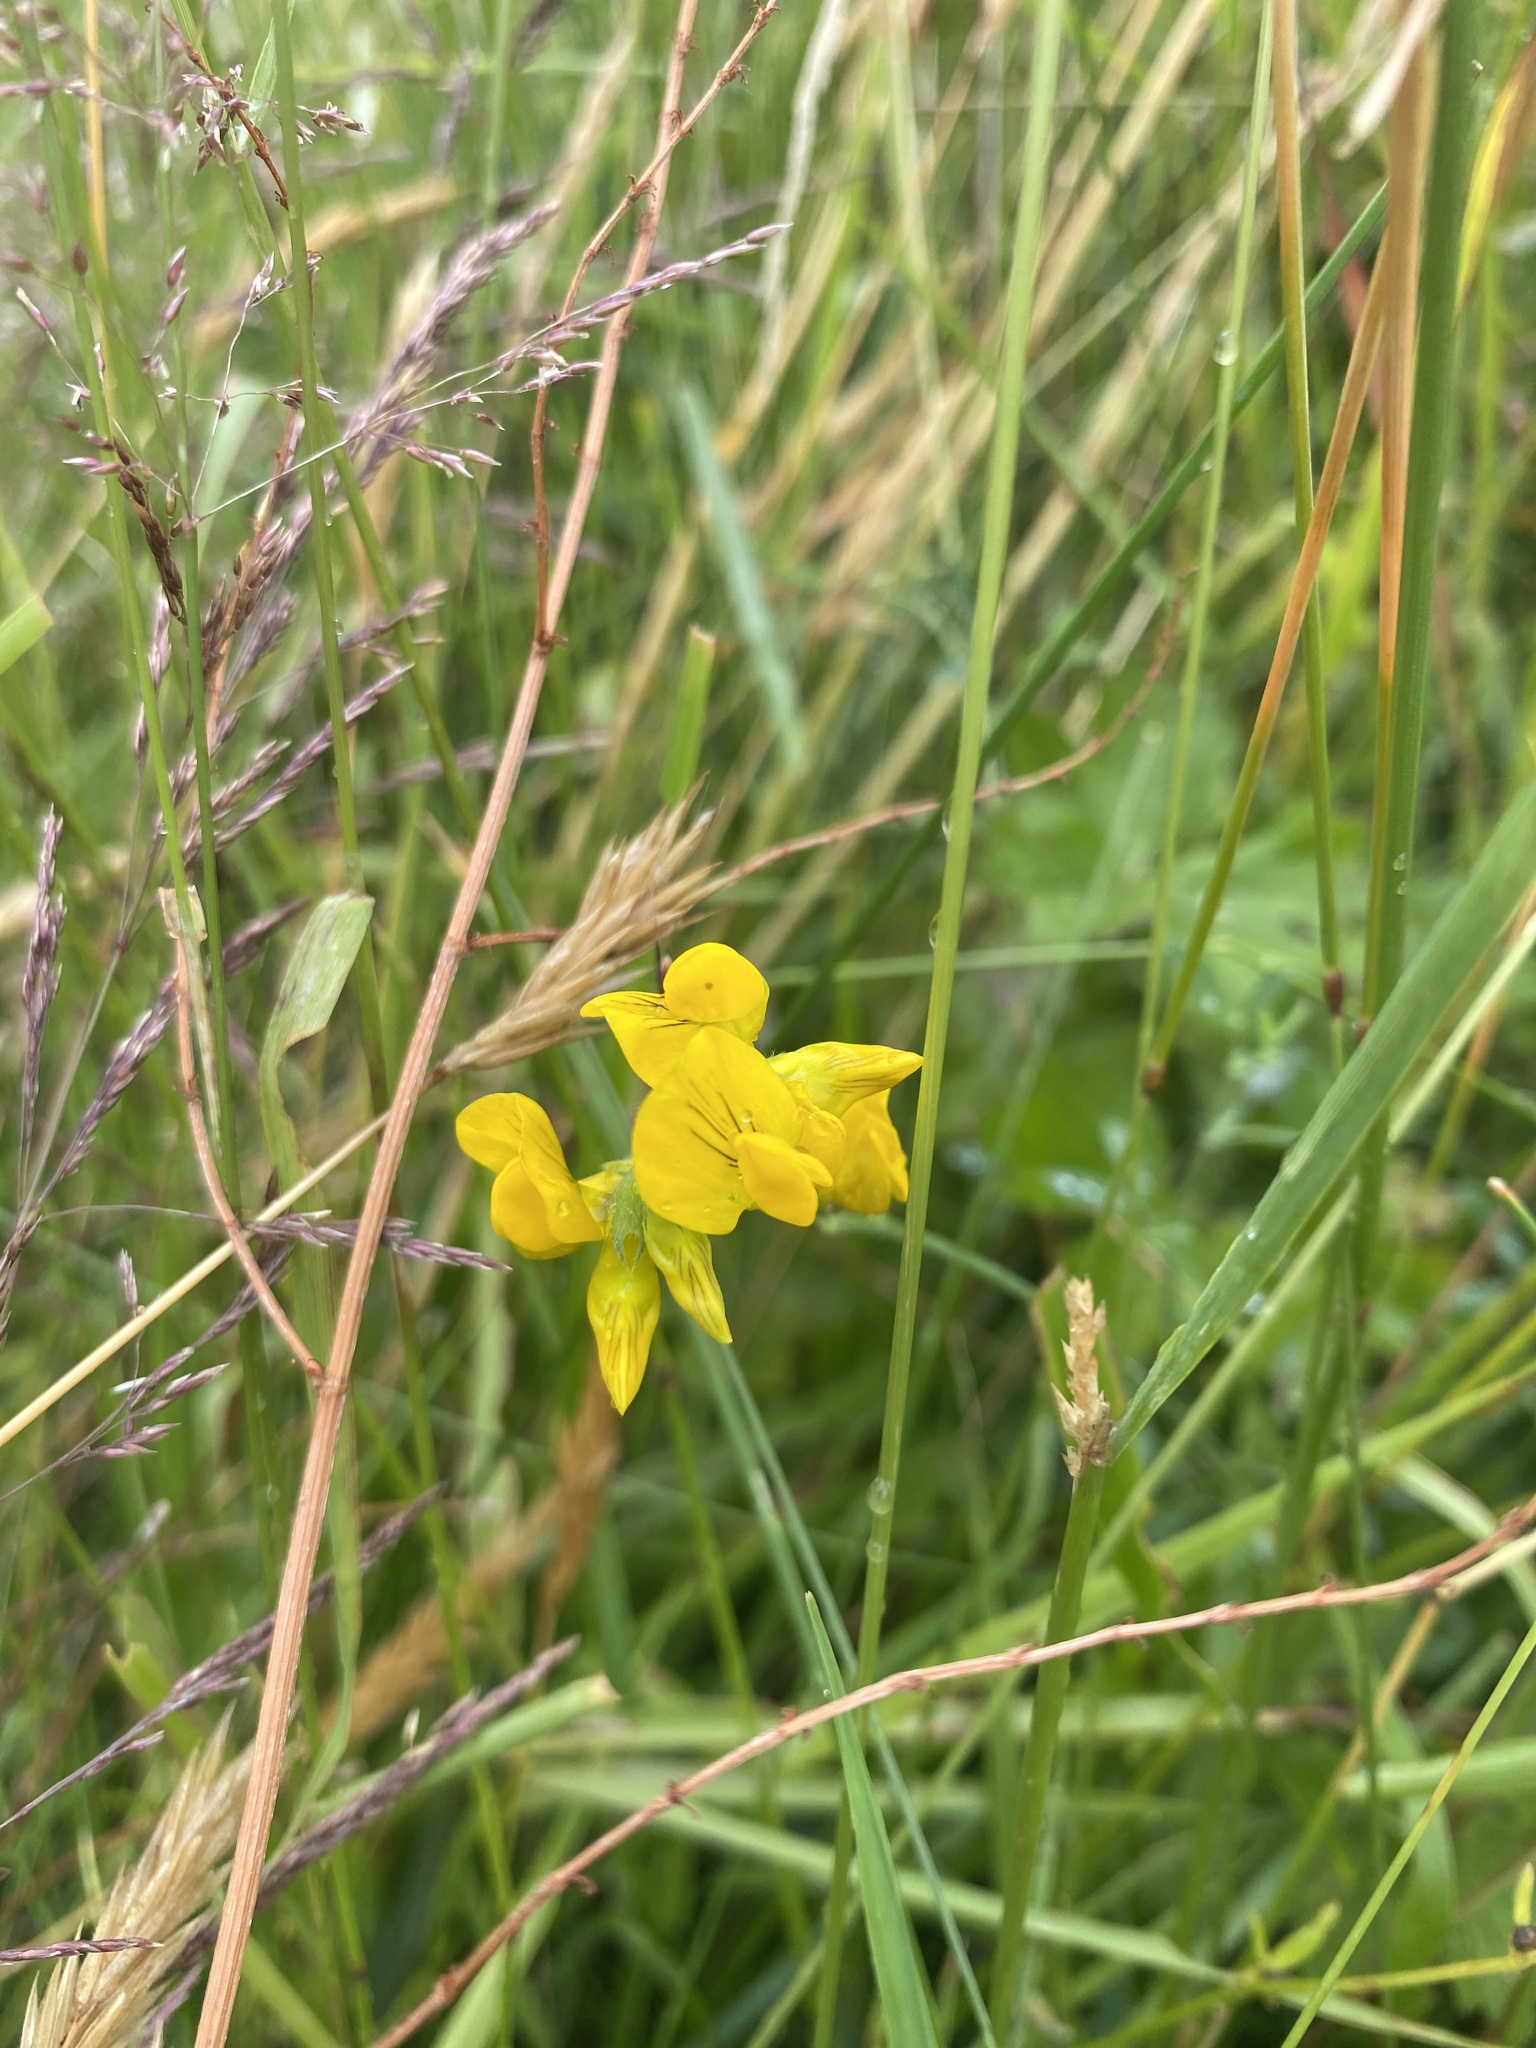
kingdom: Plantae
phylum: Tracheophyta
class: Magnoliopsida
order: Fabales
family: Fabaceae
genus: Lathyrus
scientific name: Lathyrus pratensis
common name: Meadow vetchling
